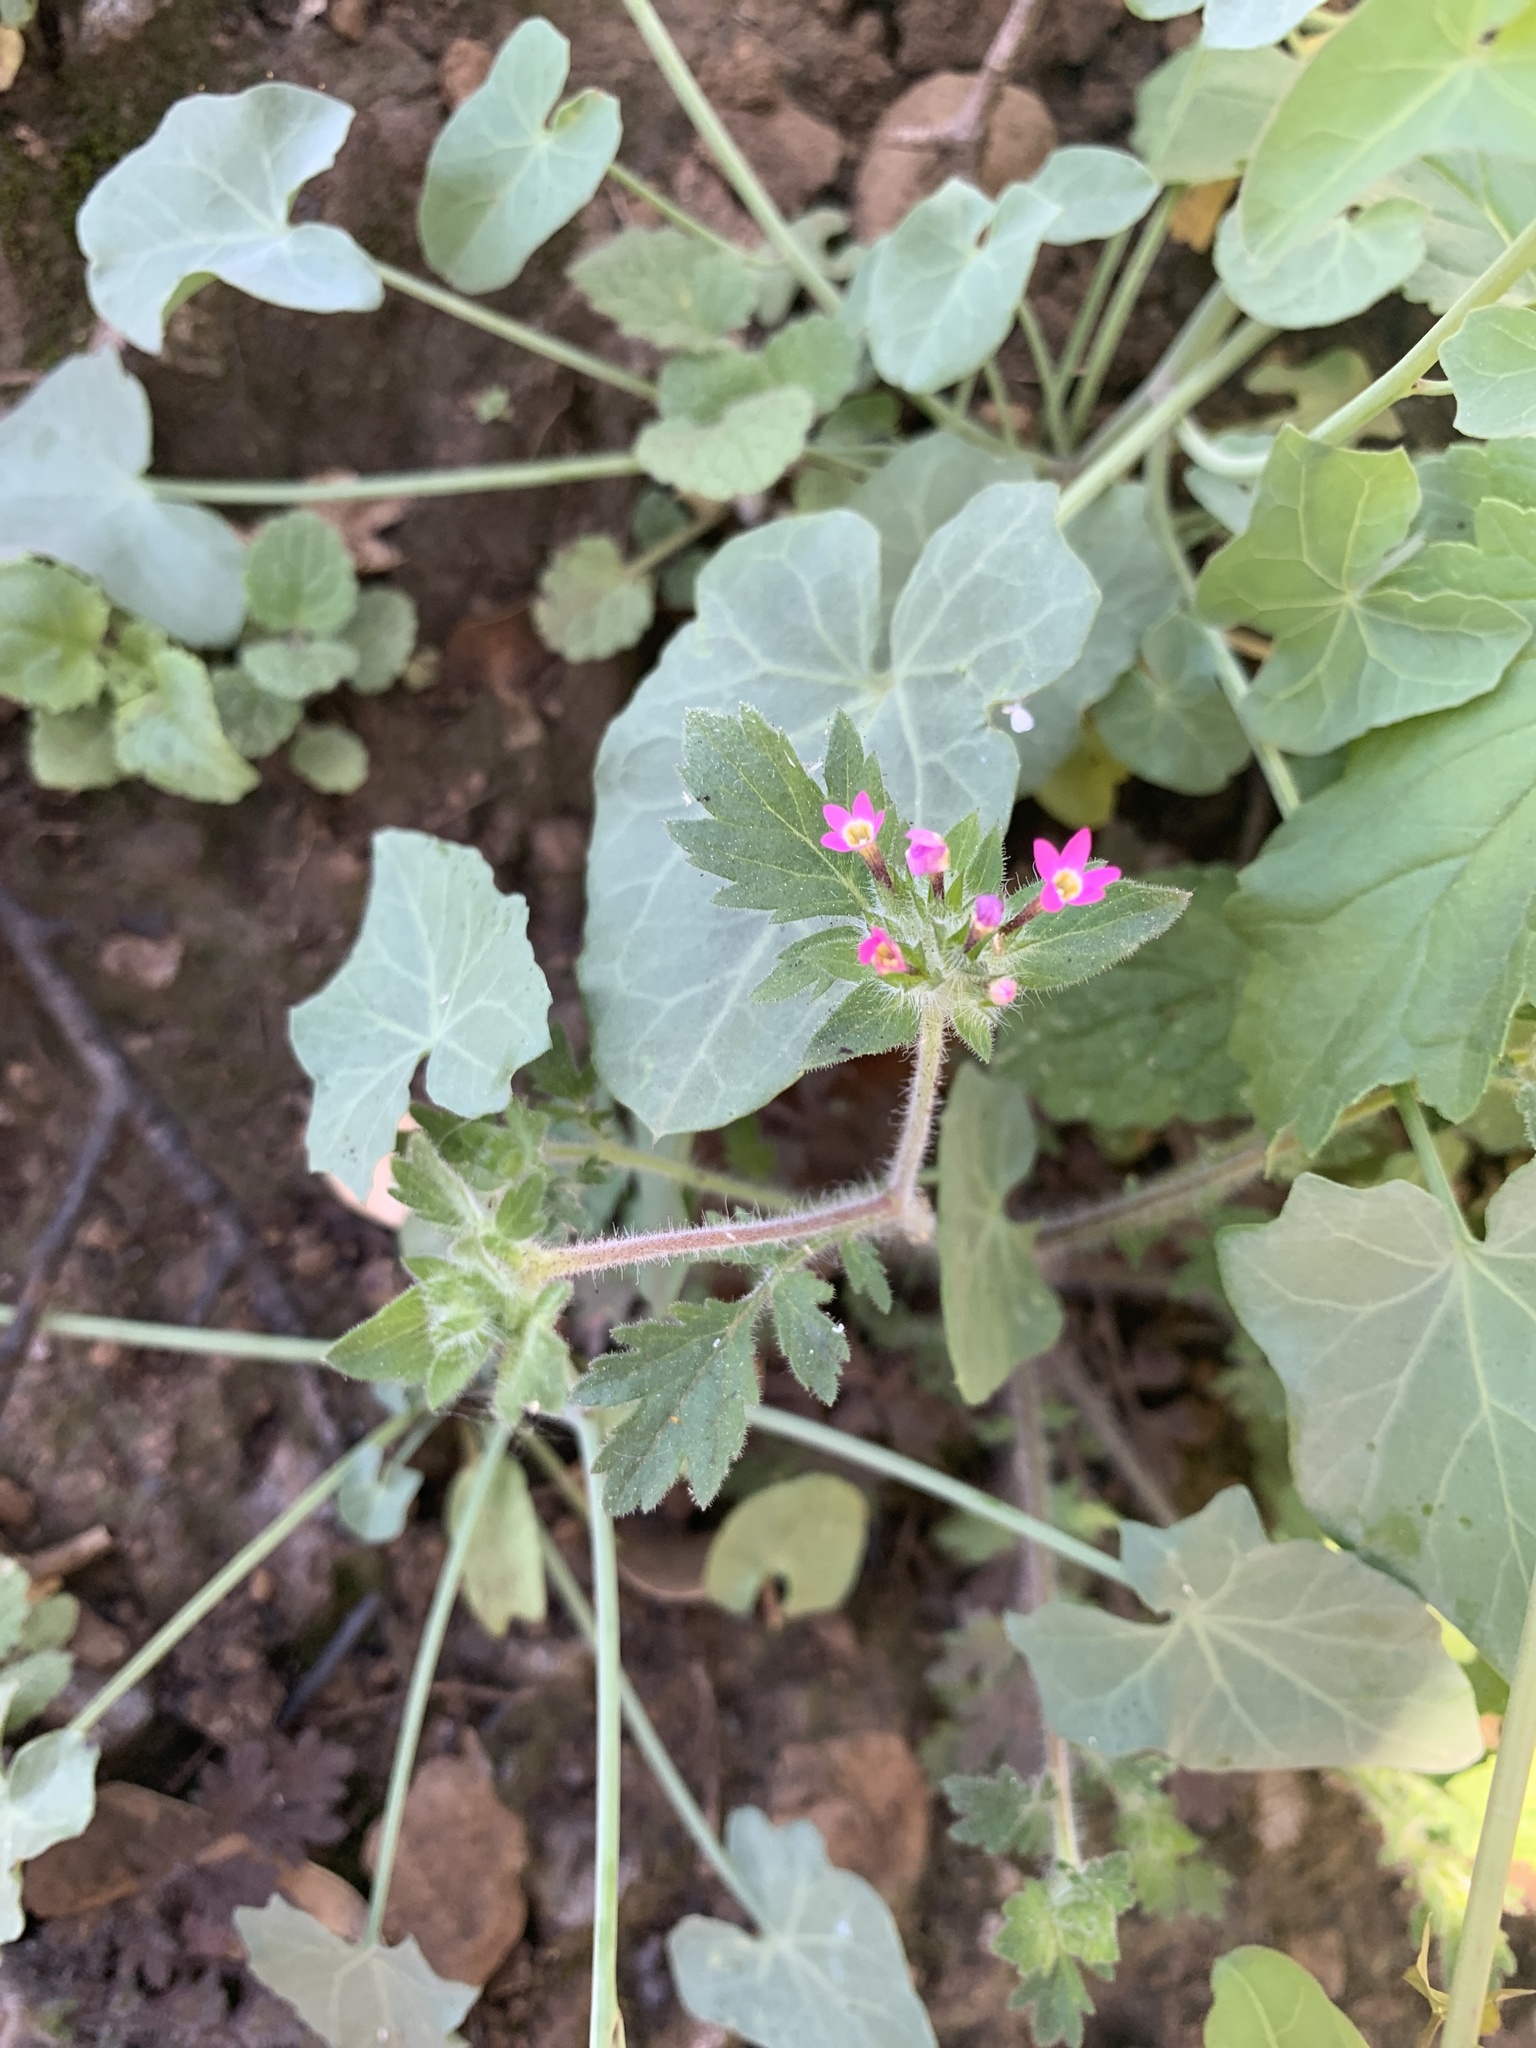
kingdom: Plantae
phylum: Tracheophyta
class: Magnoliopsida
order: Ericales
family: Polemoniaceae
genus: Collomia
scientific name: Collomia heterophylla
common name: Variable-leaved collomia
